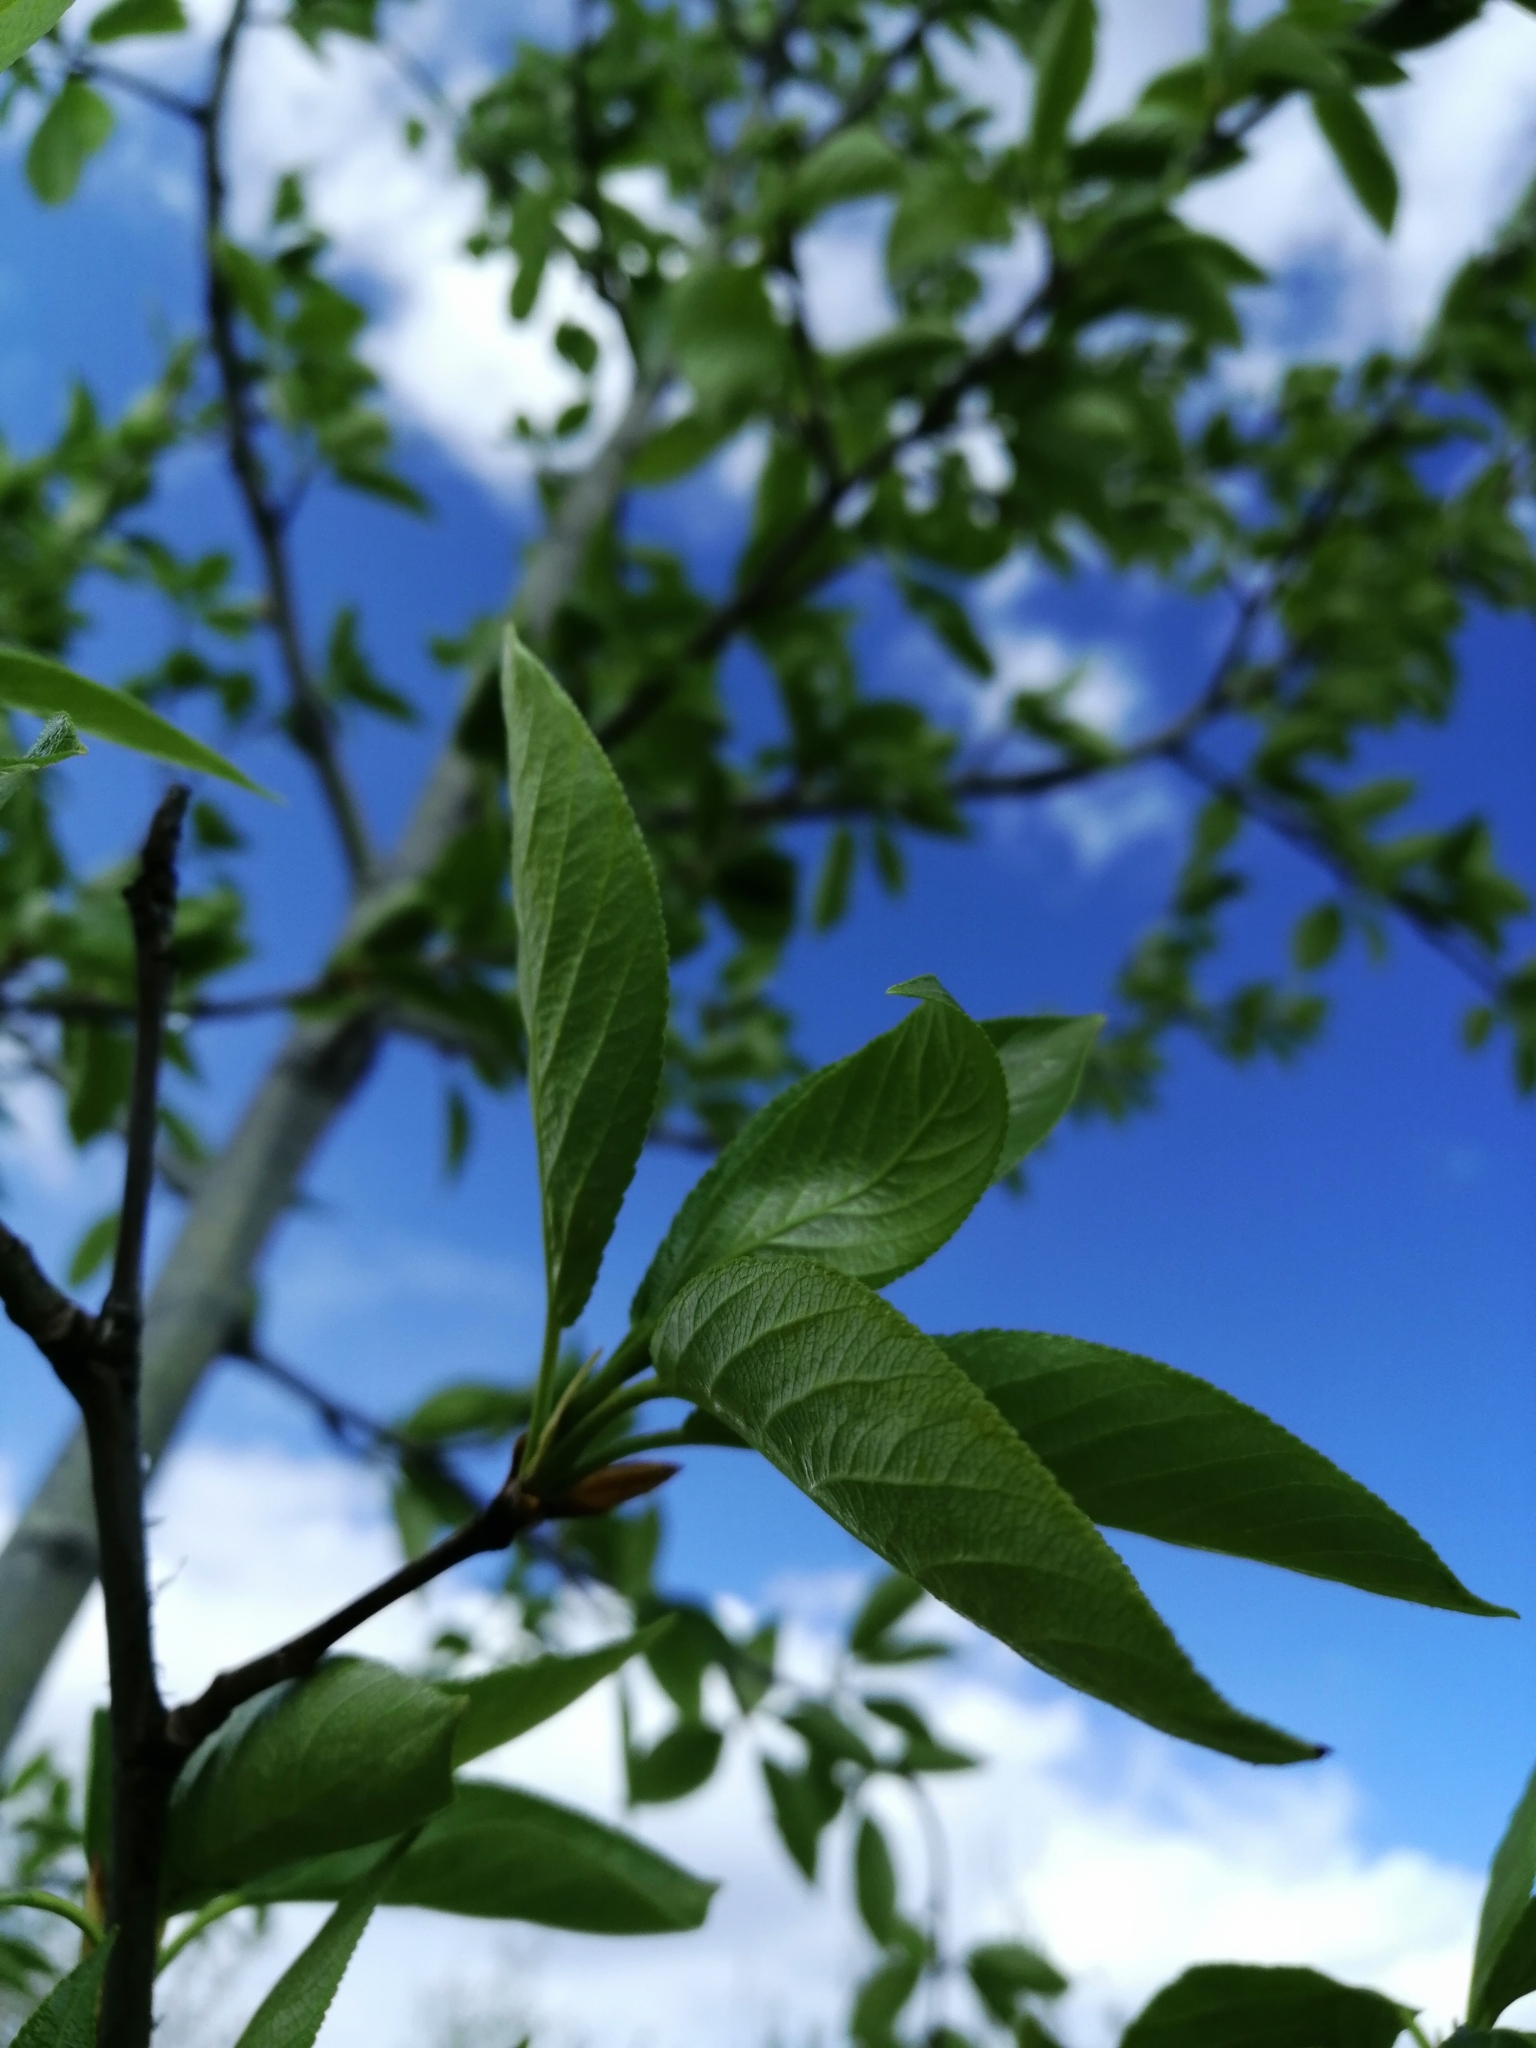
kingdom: Plantae
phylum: Tracheophyta
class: Magnoliopsida
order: Malpighiales
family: Salicaceae
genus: Populus
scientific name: Populus suaveolens
